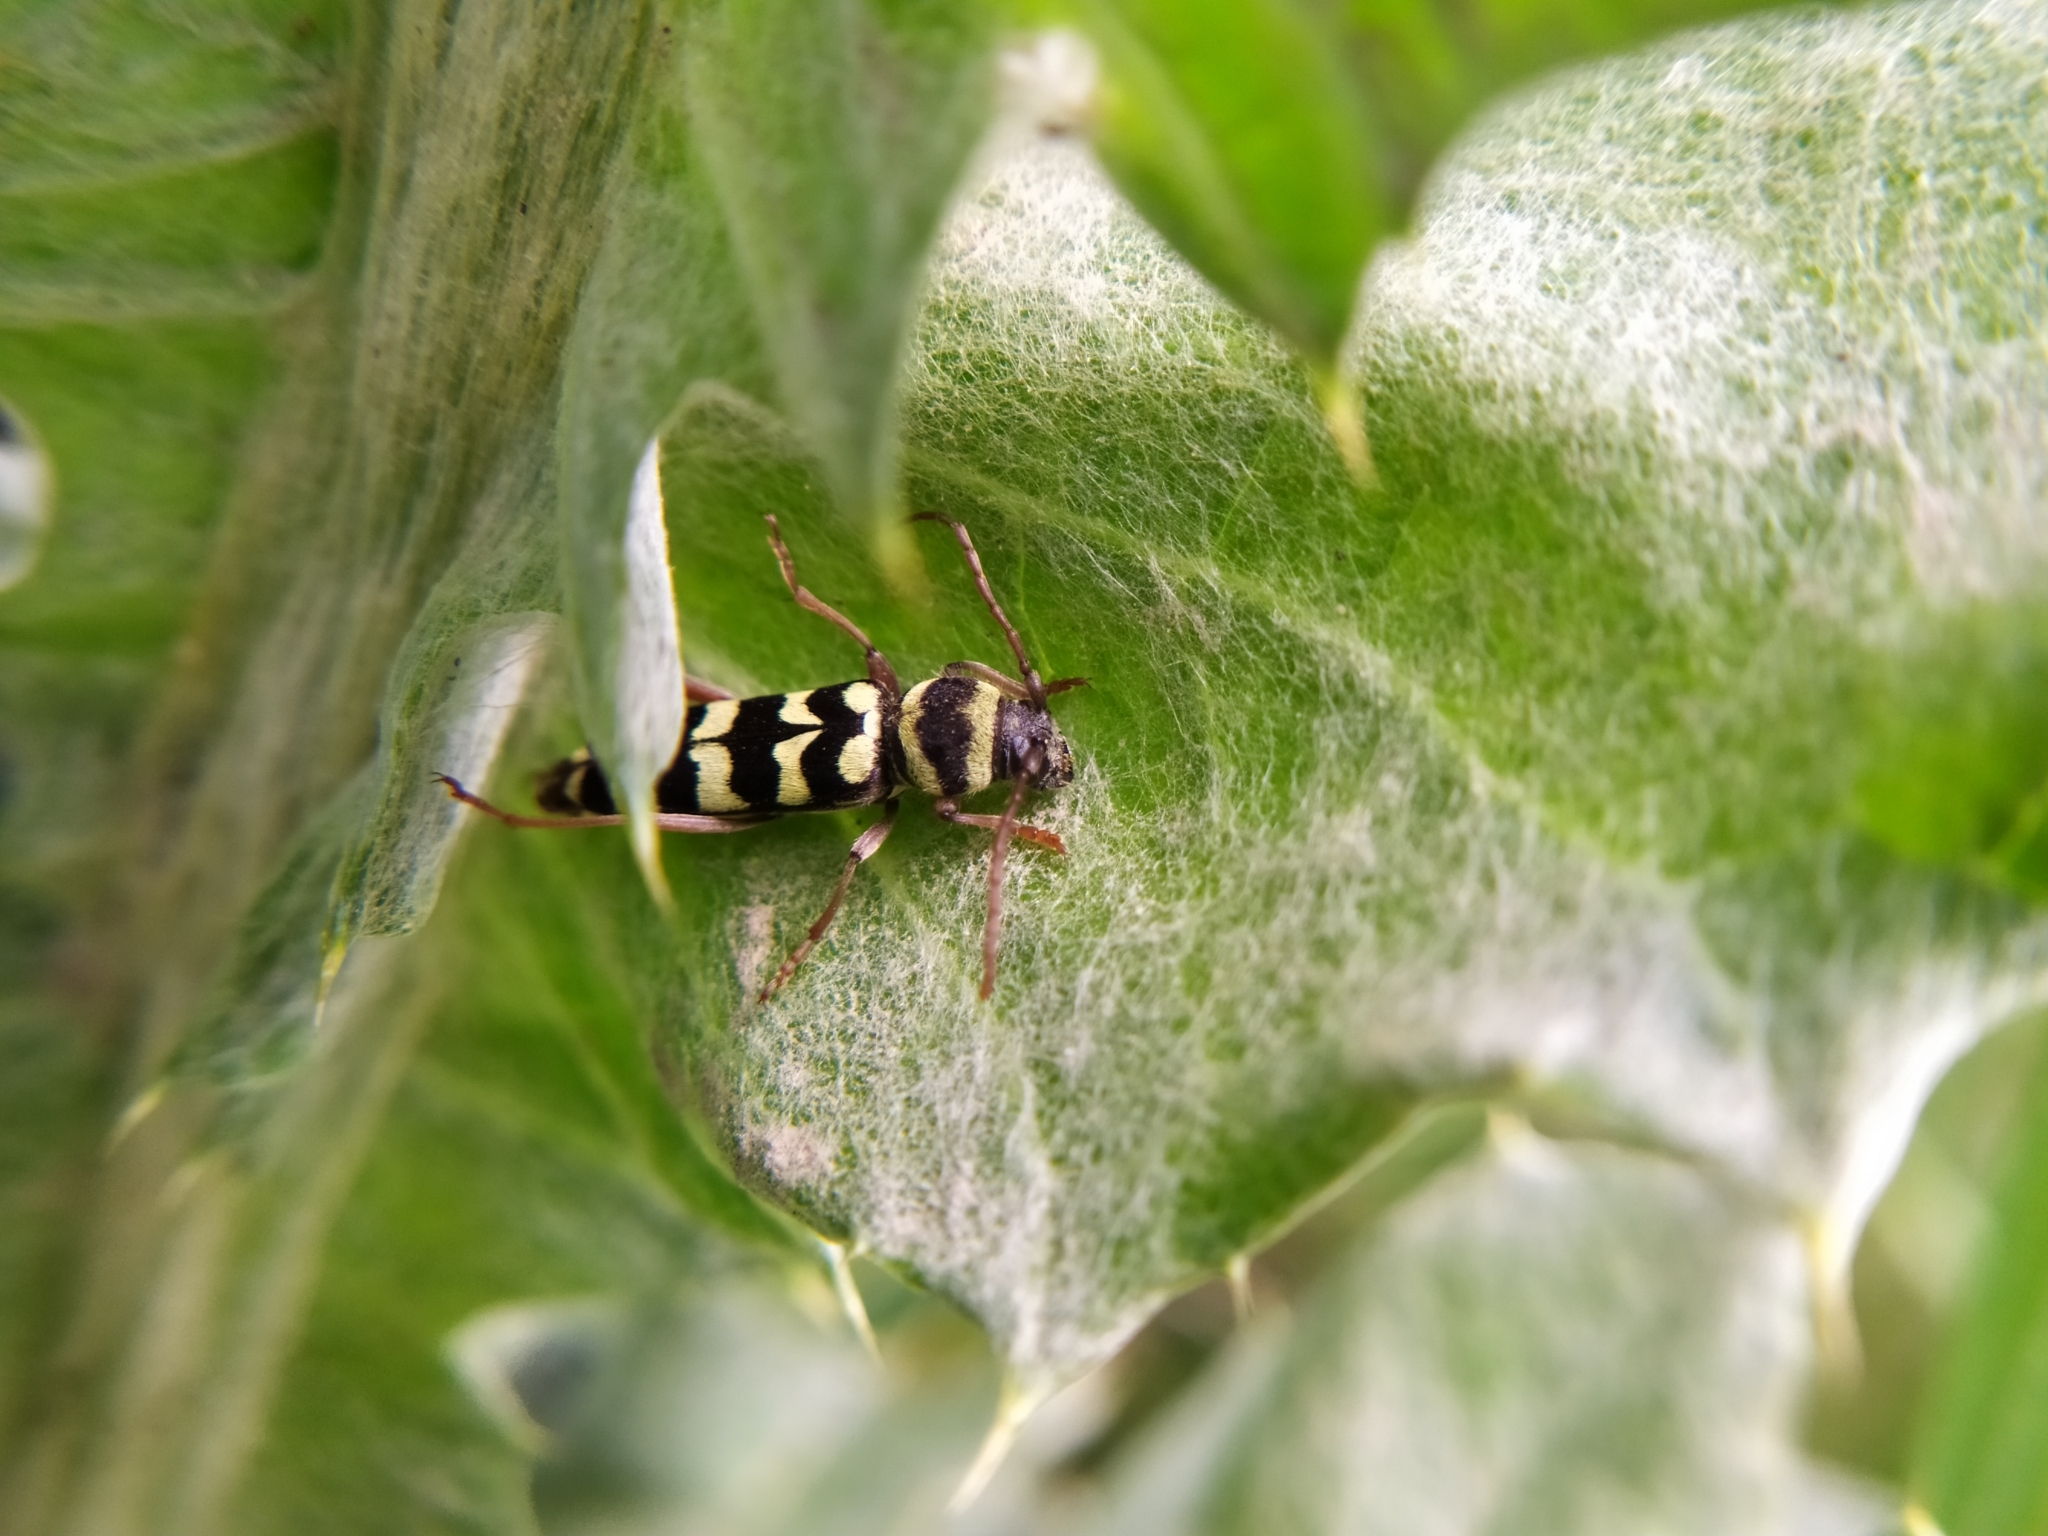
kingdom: Animalia
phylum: Arthropoda
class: Insecta
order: Coleoptera
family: Cerambycidae
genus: Plagionotus
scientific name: Plagionotus floralis
